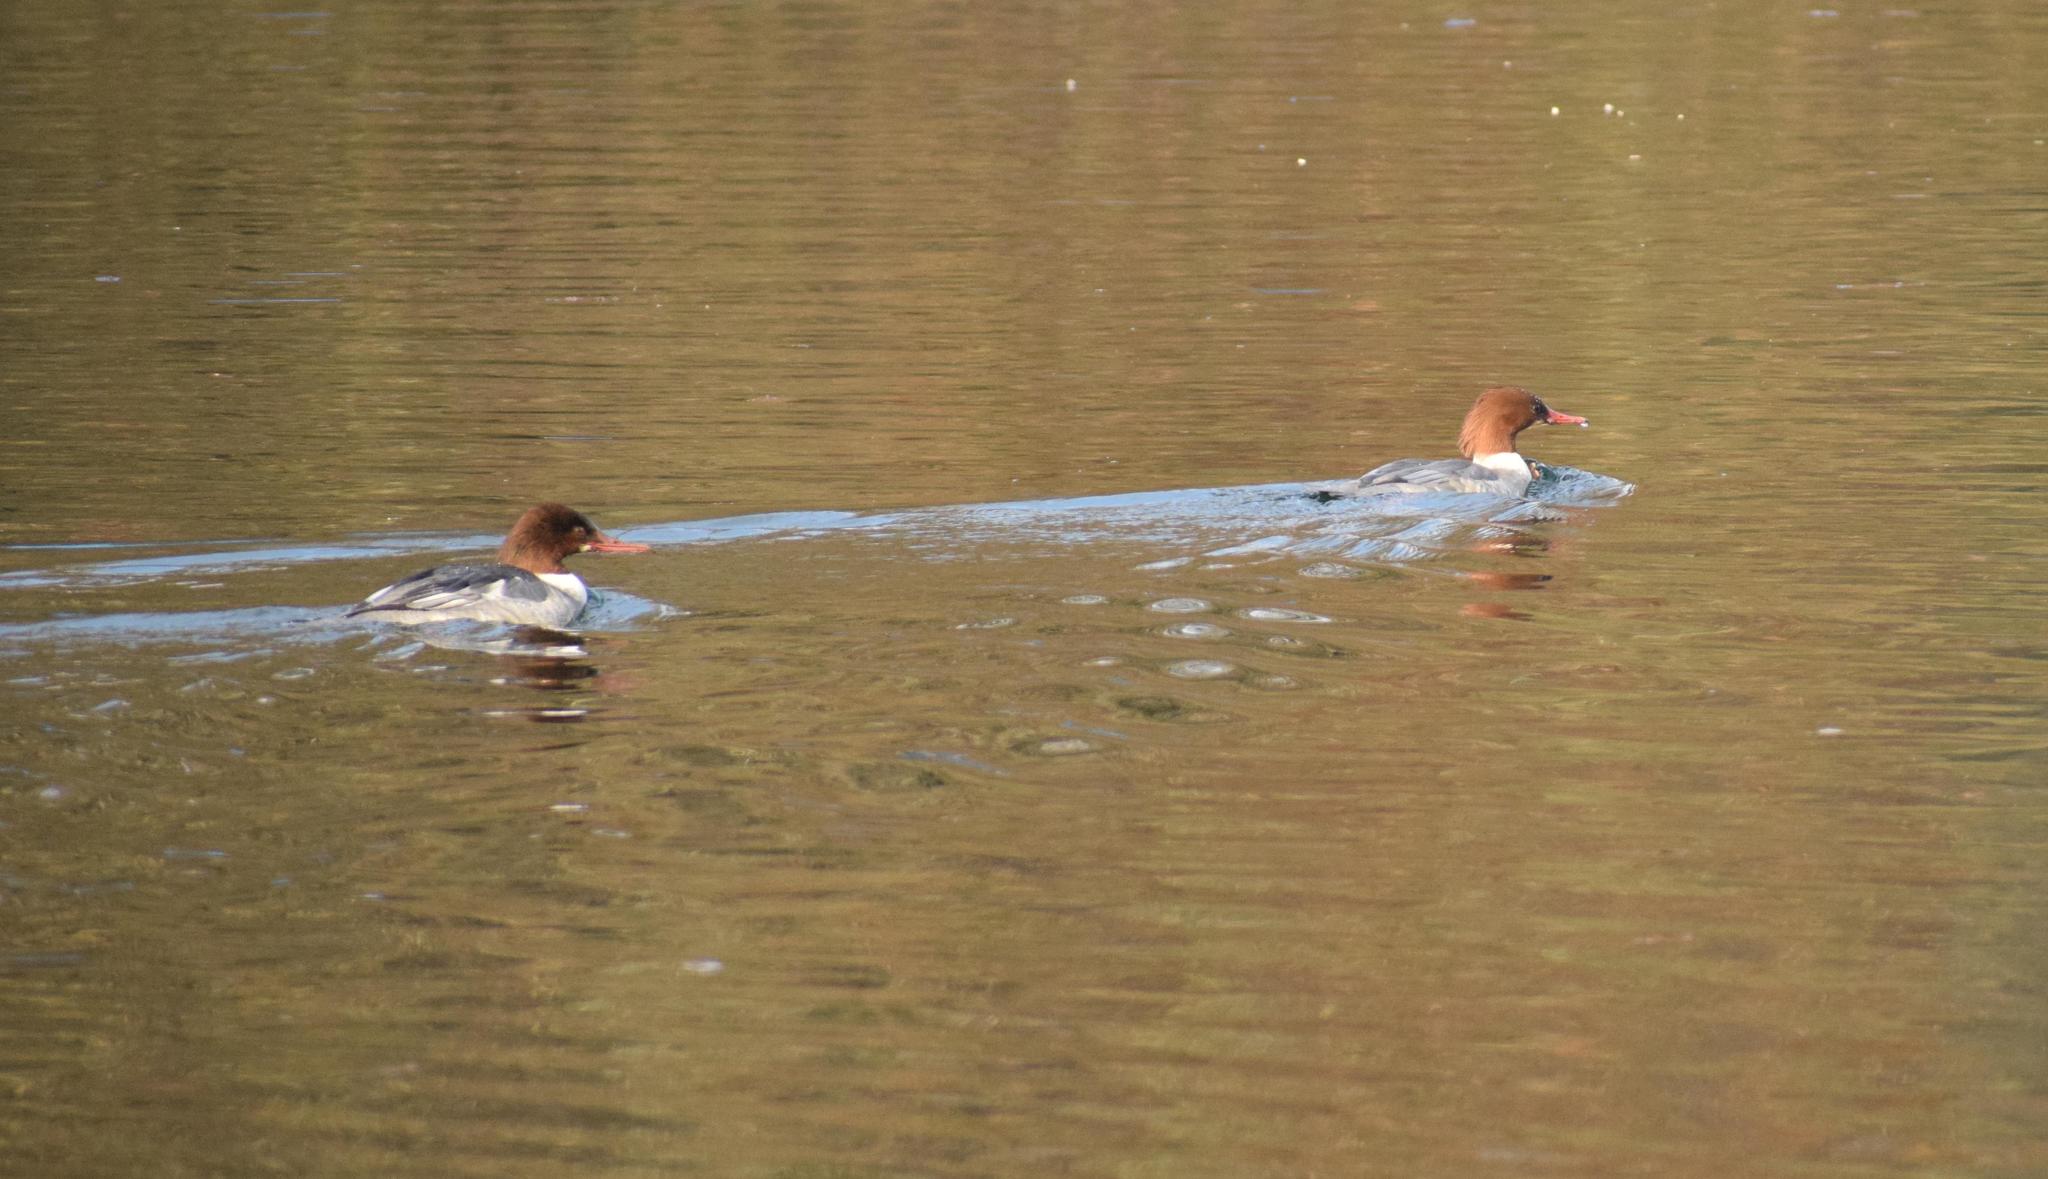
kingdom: Animalia
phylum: Chordata
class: Aves
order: Anseriformes
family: Anatidae
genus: Mergus
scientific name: Mergus merganser
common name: Common merganser
